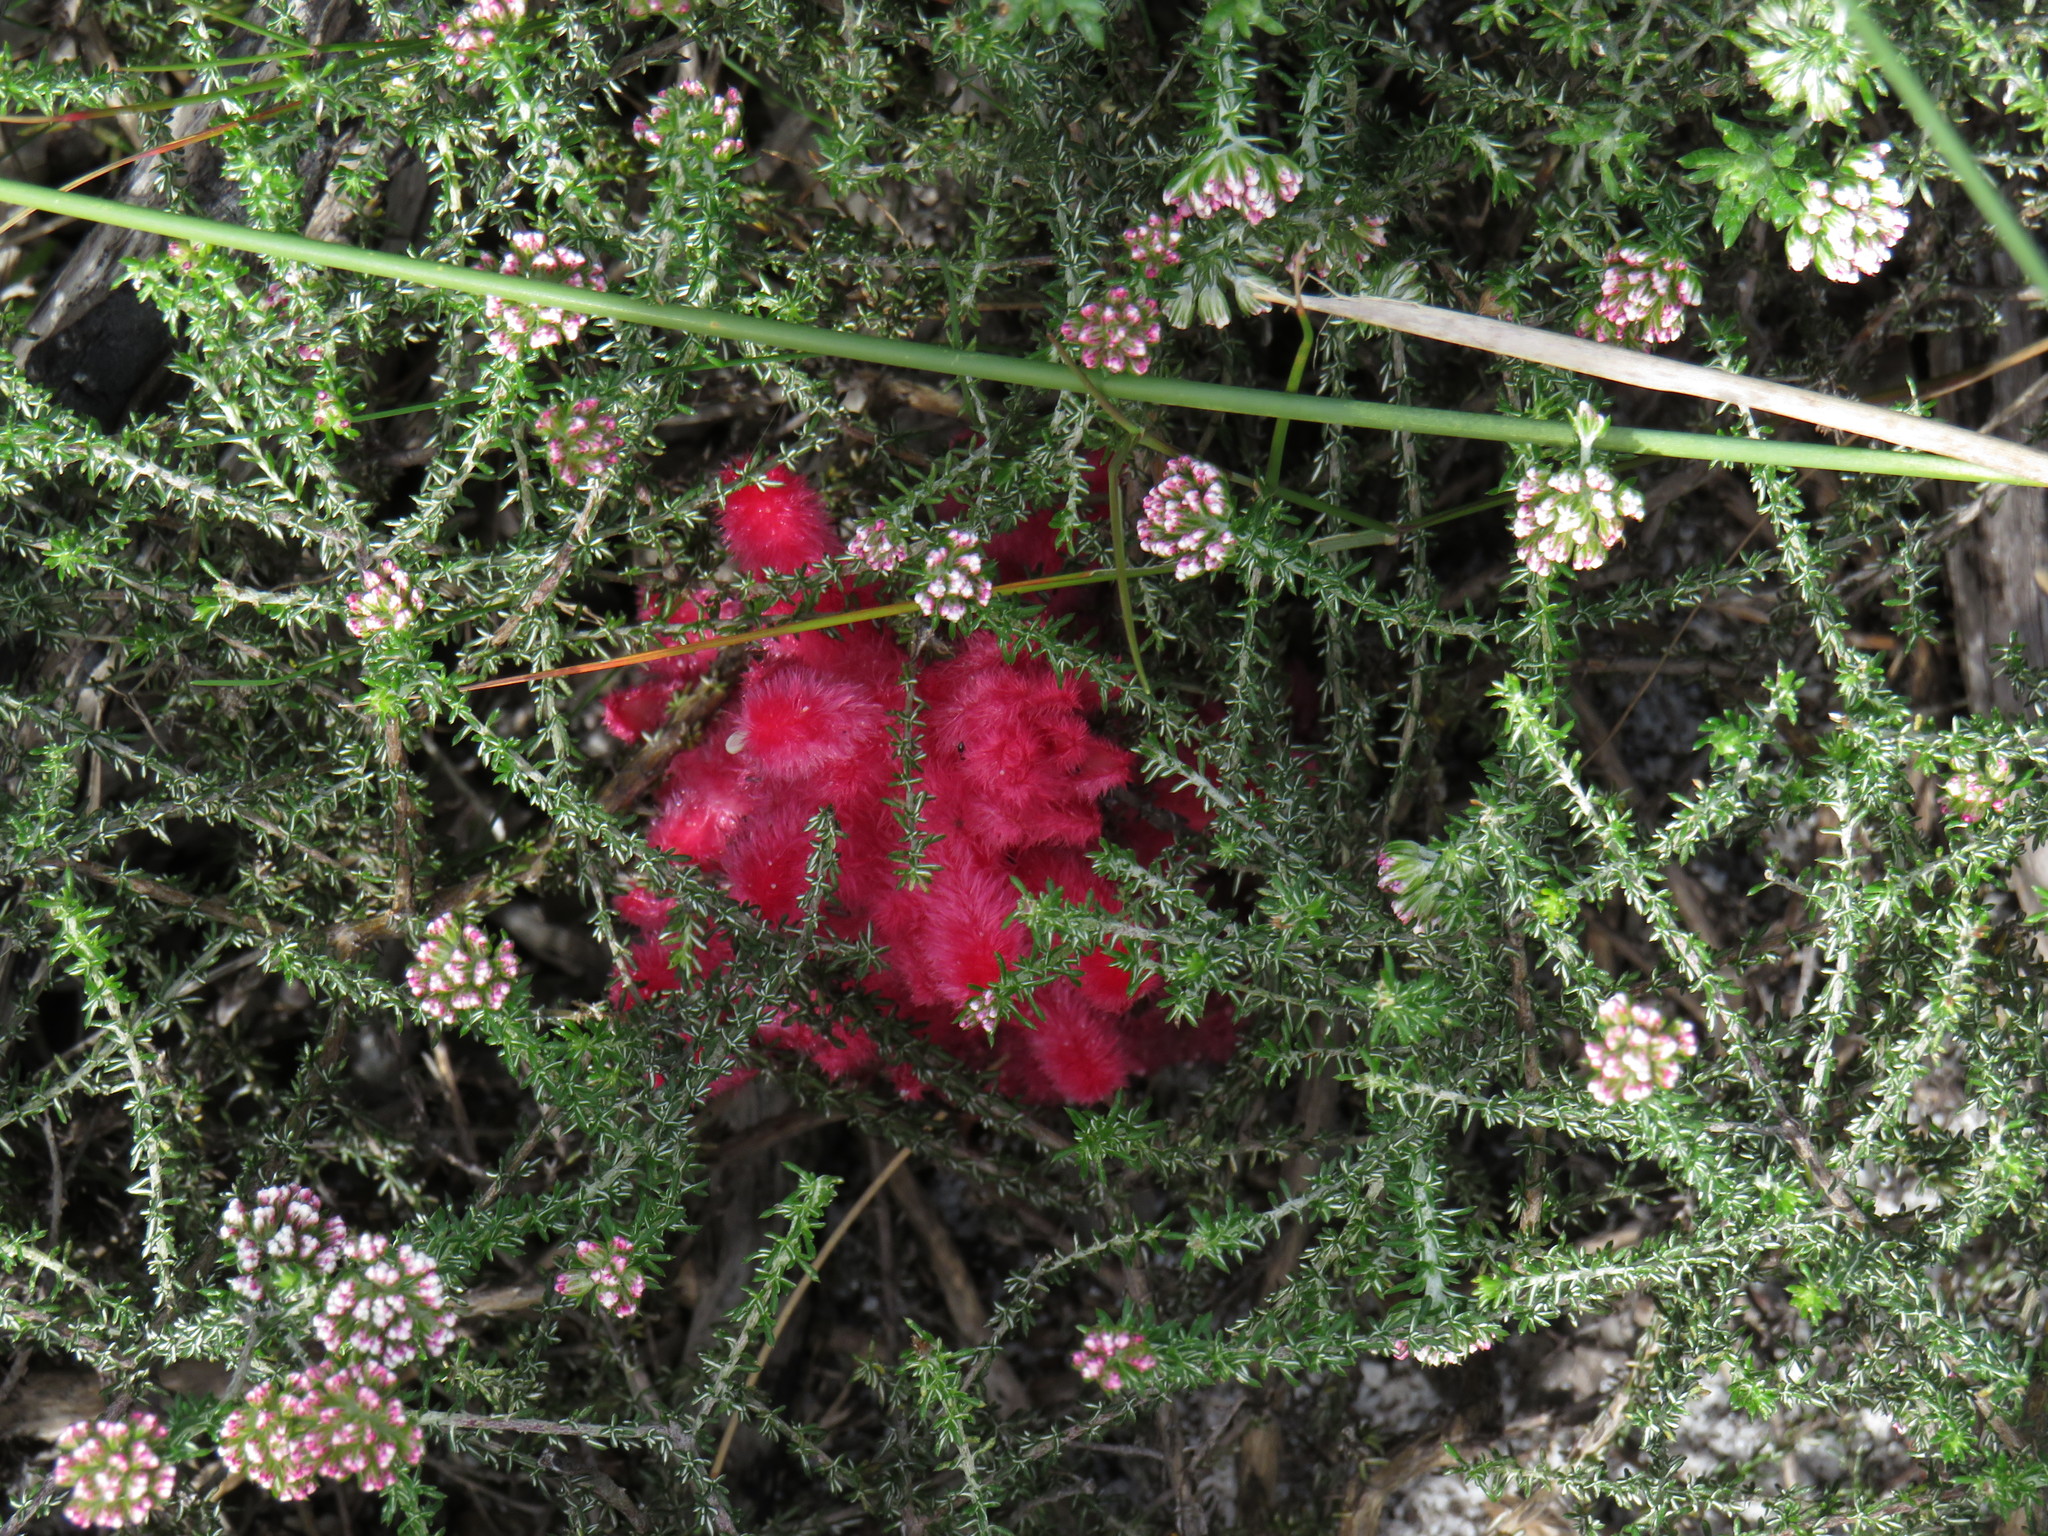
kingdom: Plantae
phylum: Tracheophyta
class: Magnoliopsida
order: Lamiales
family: Orobanchaceae
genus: Hyobanche
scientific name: Hyobanche sanguinea
